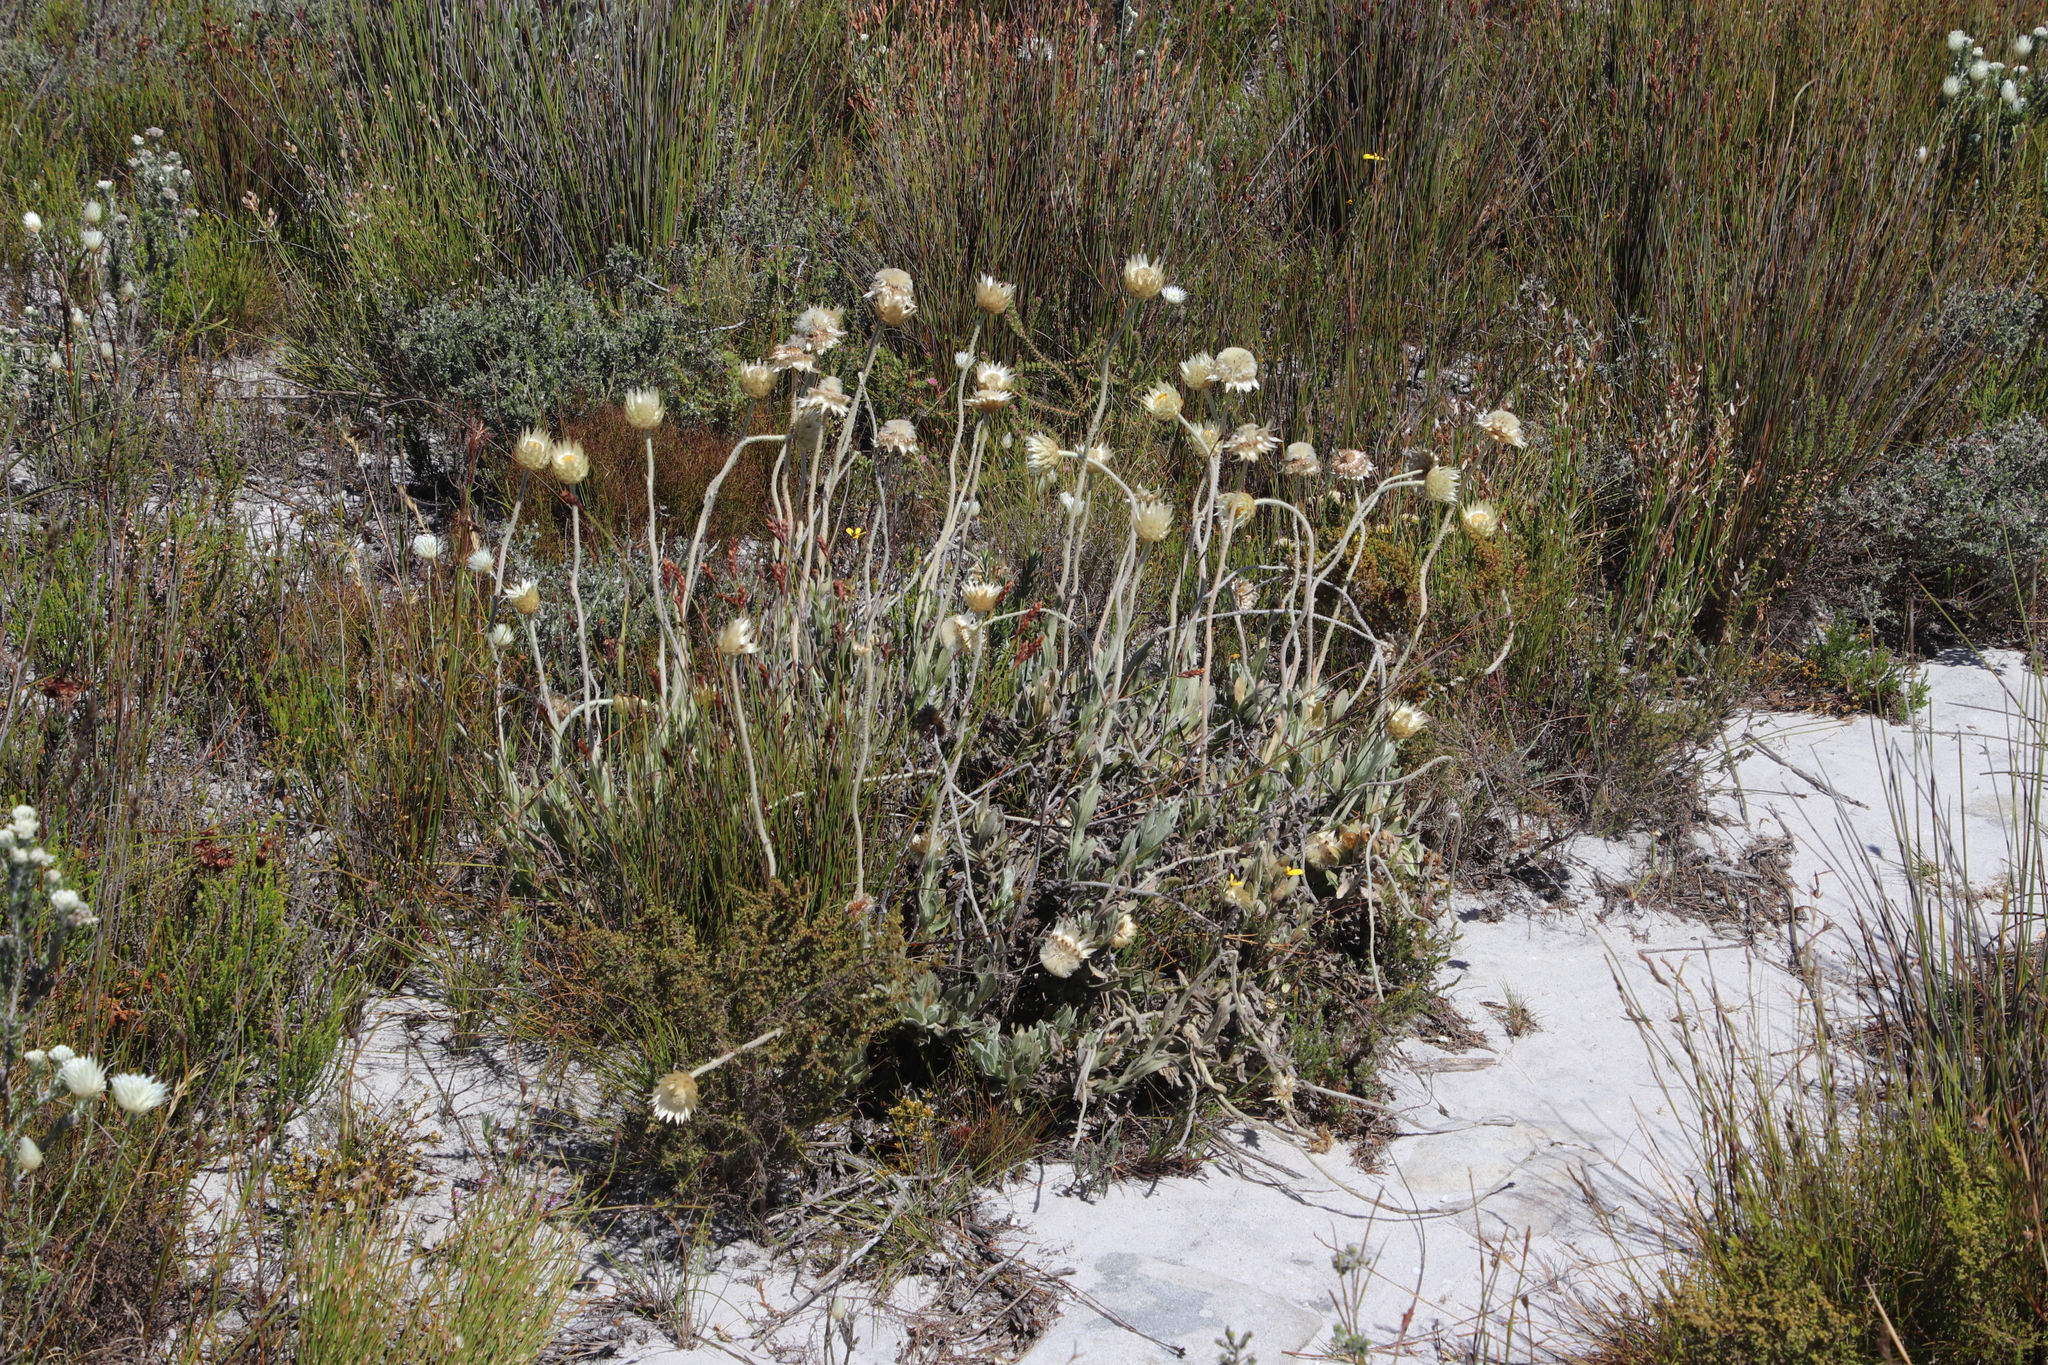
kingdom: Plantae
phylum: Tracheophyta
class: Magnoliopsida
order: Asterales
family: Asteraceae
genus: Syncarpha
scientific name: Syncarpha speciosissima
